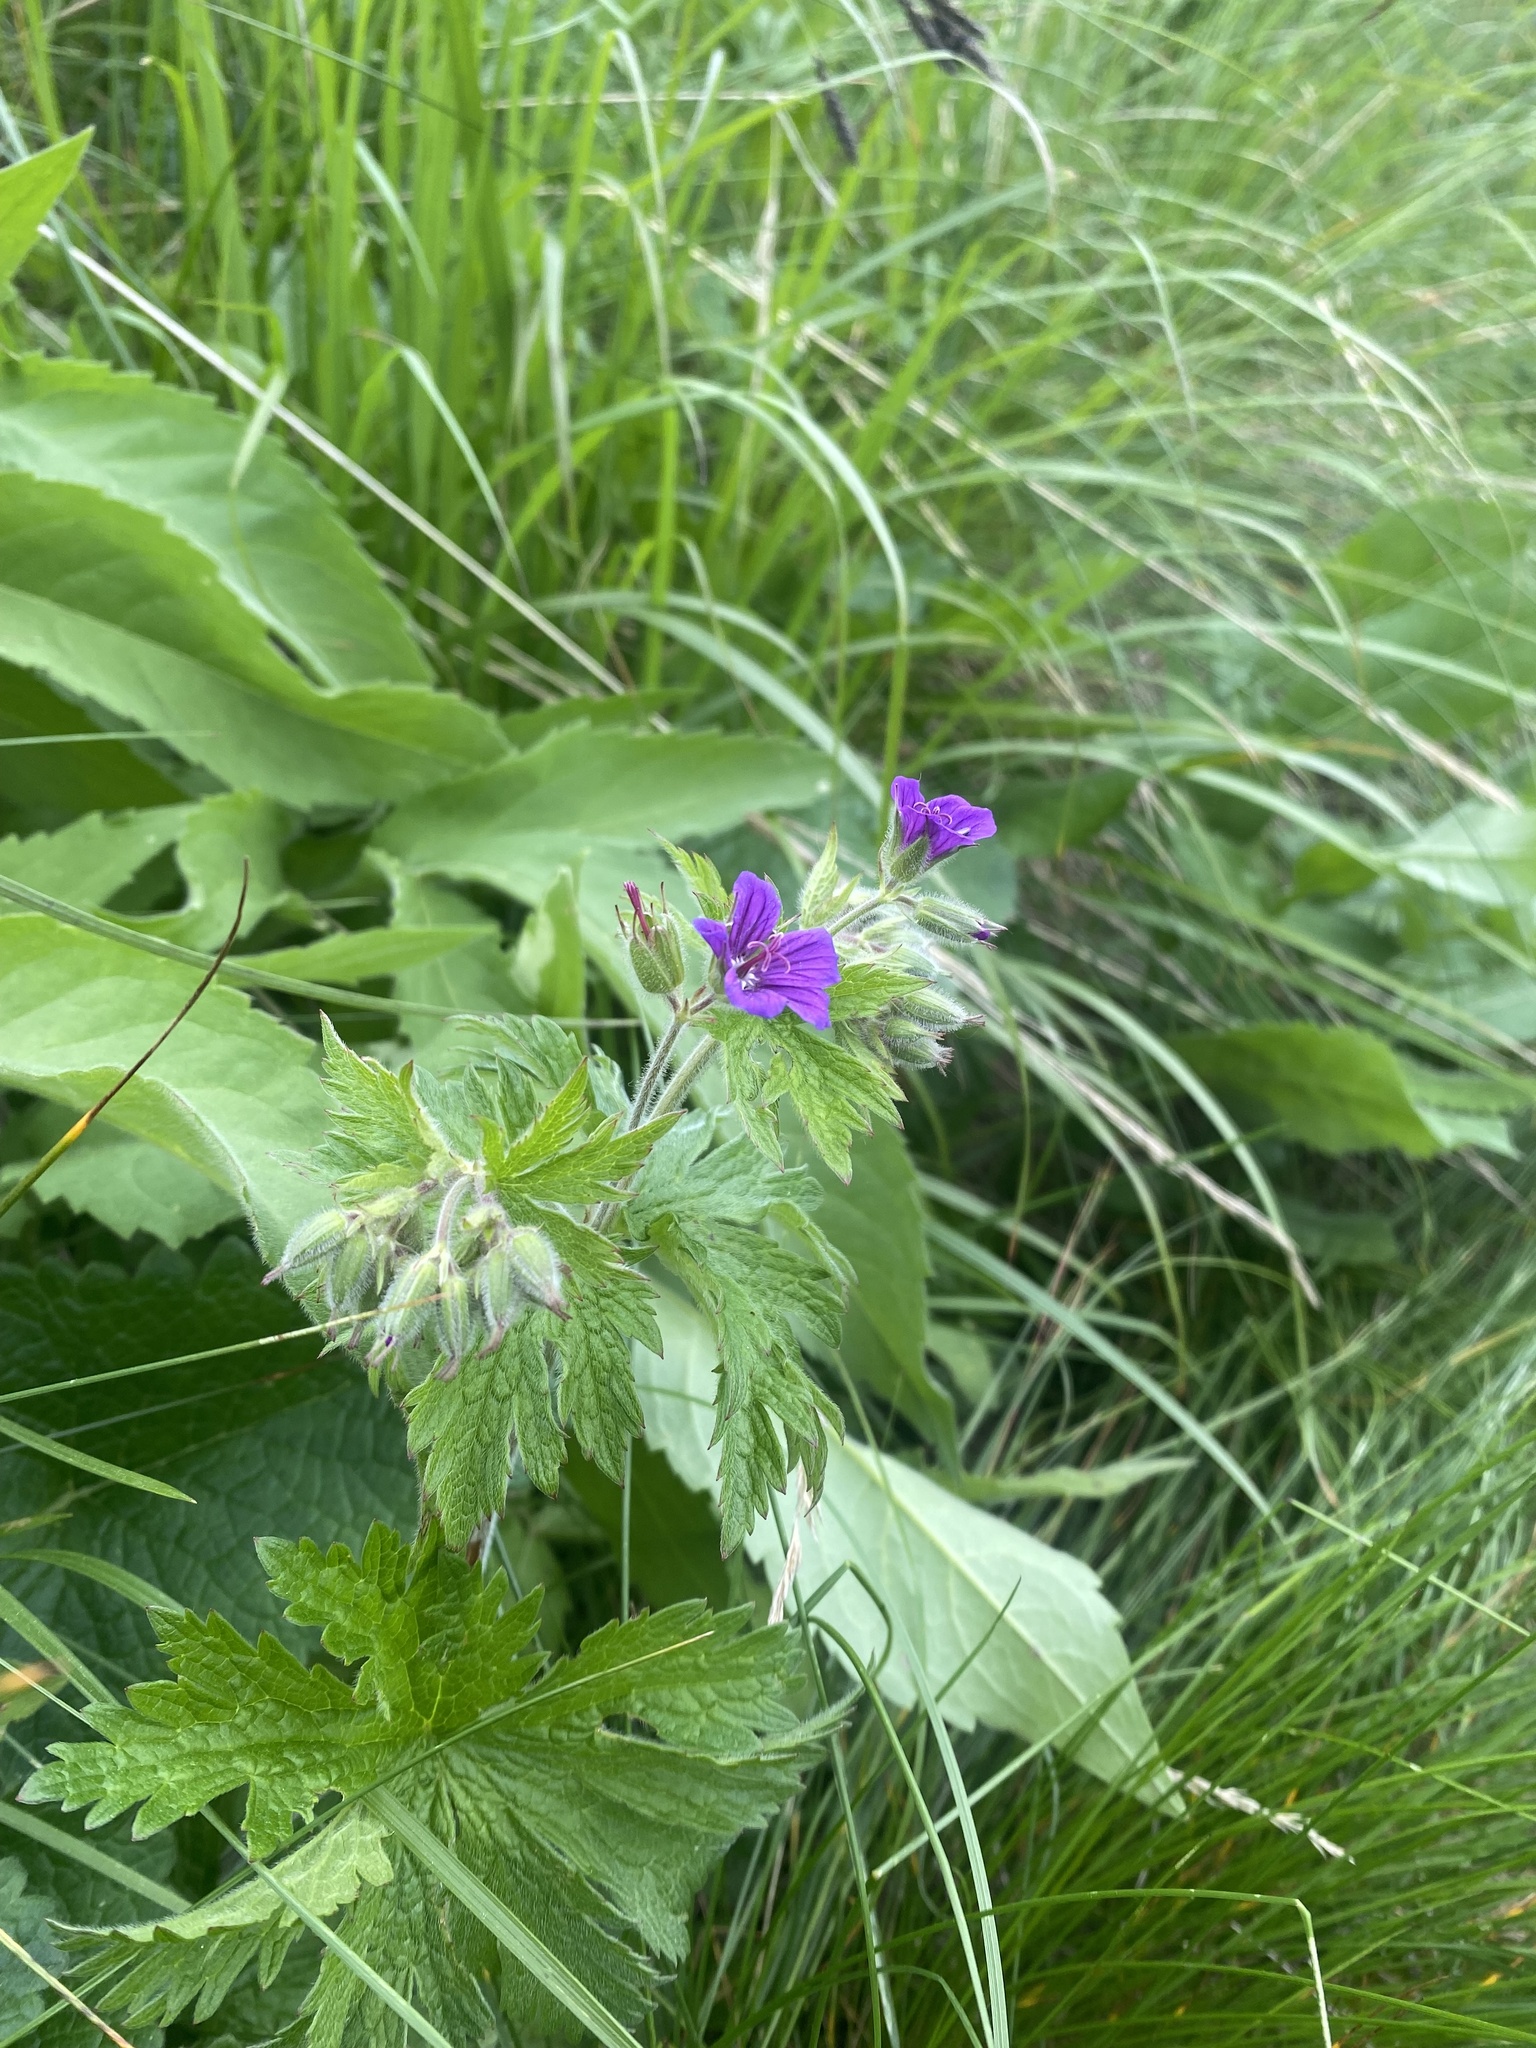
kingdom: Plantae
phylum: Tracheophyta
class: Magnoliopsida
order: Geraniales
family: Geraniaceae
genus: Geranium
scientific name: Geranium sylvaticum
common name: Wood crane's-bill
